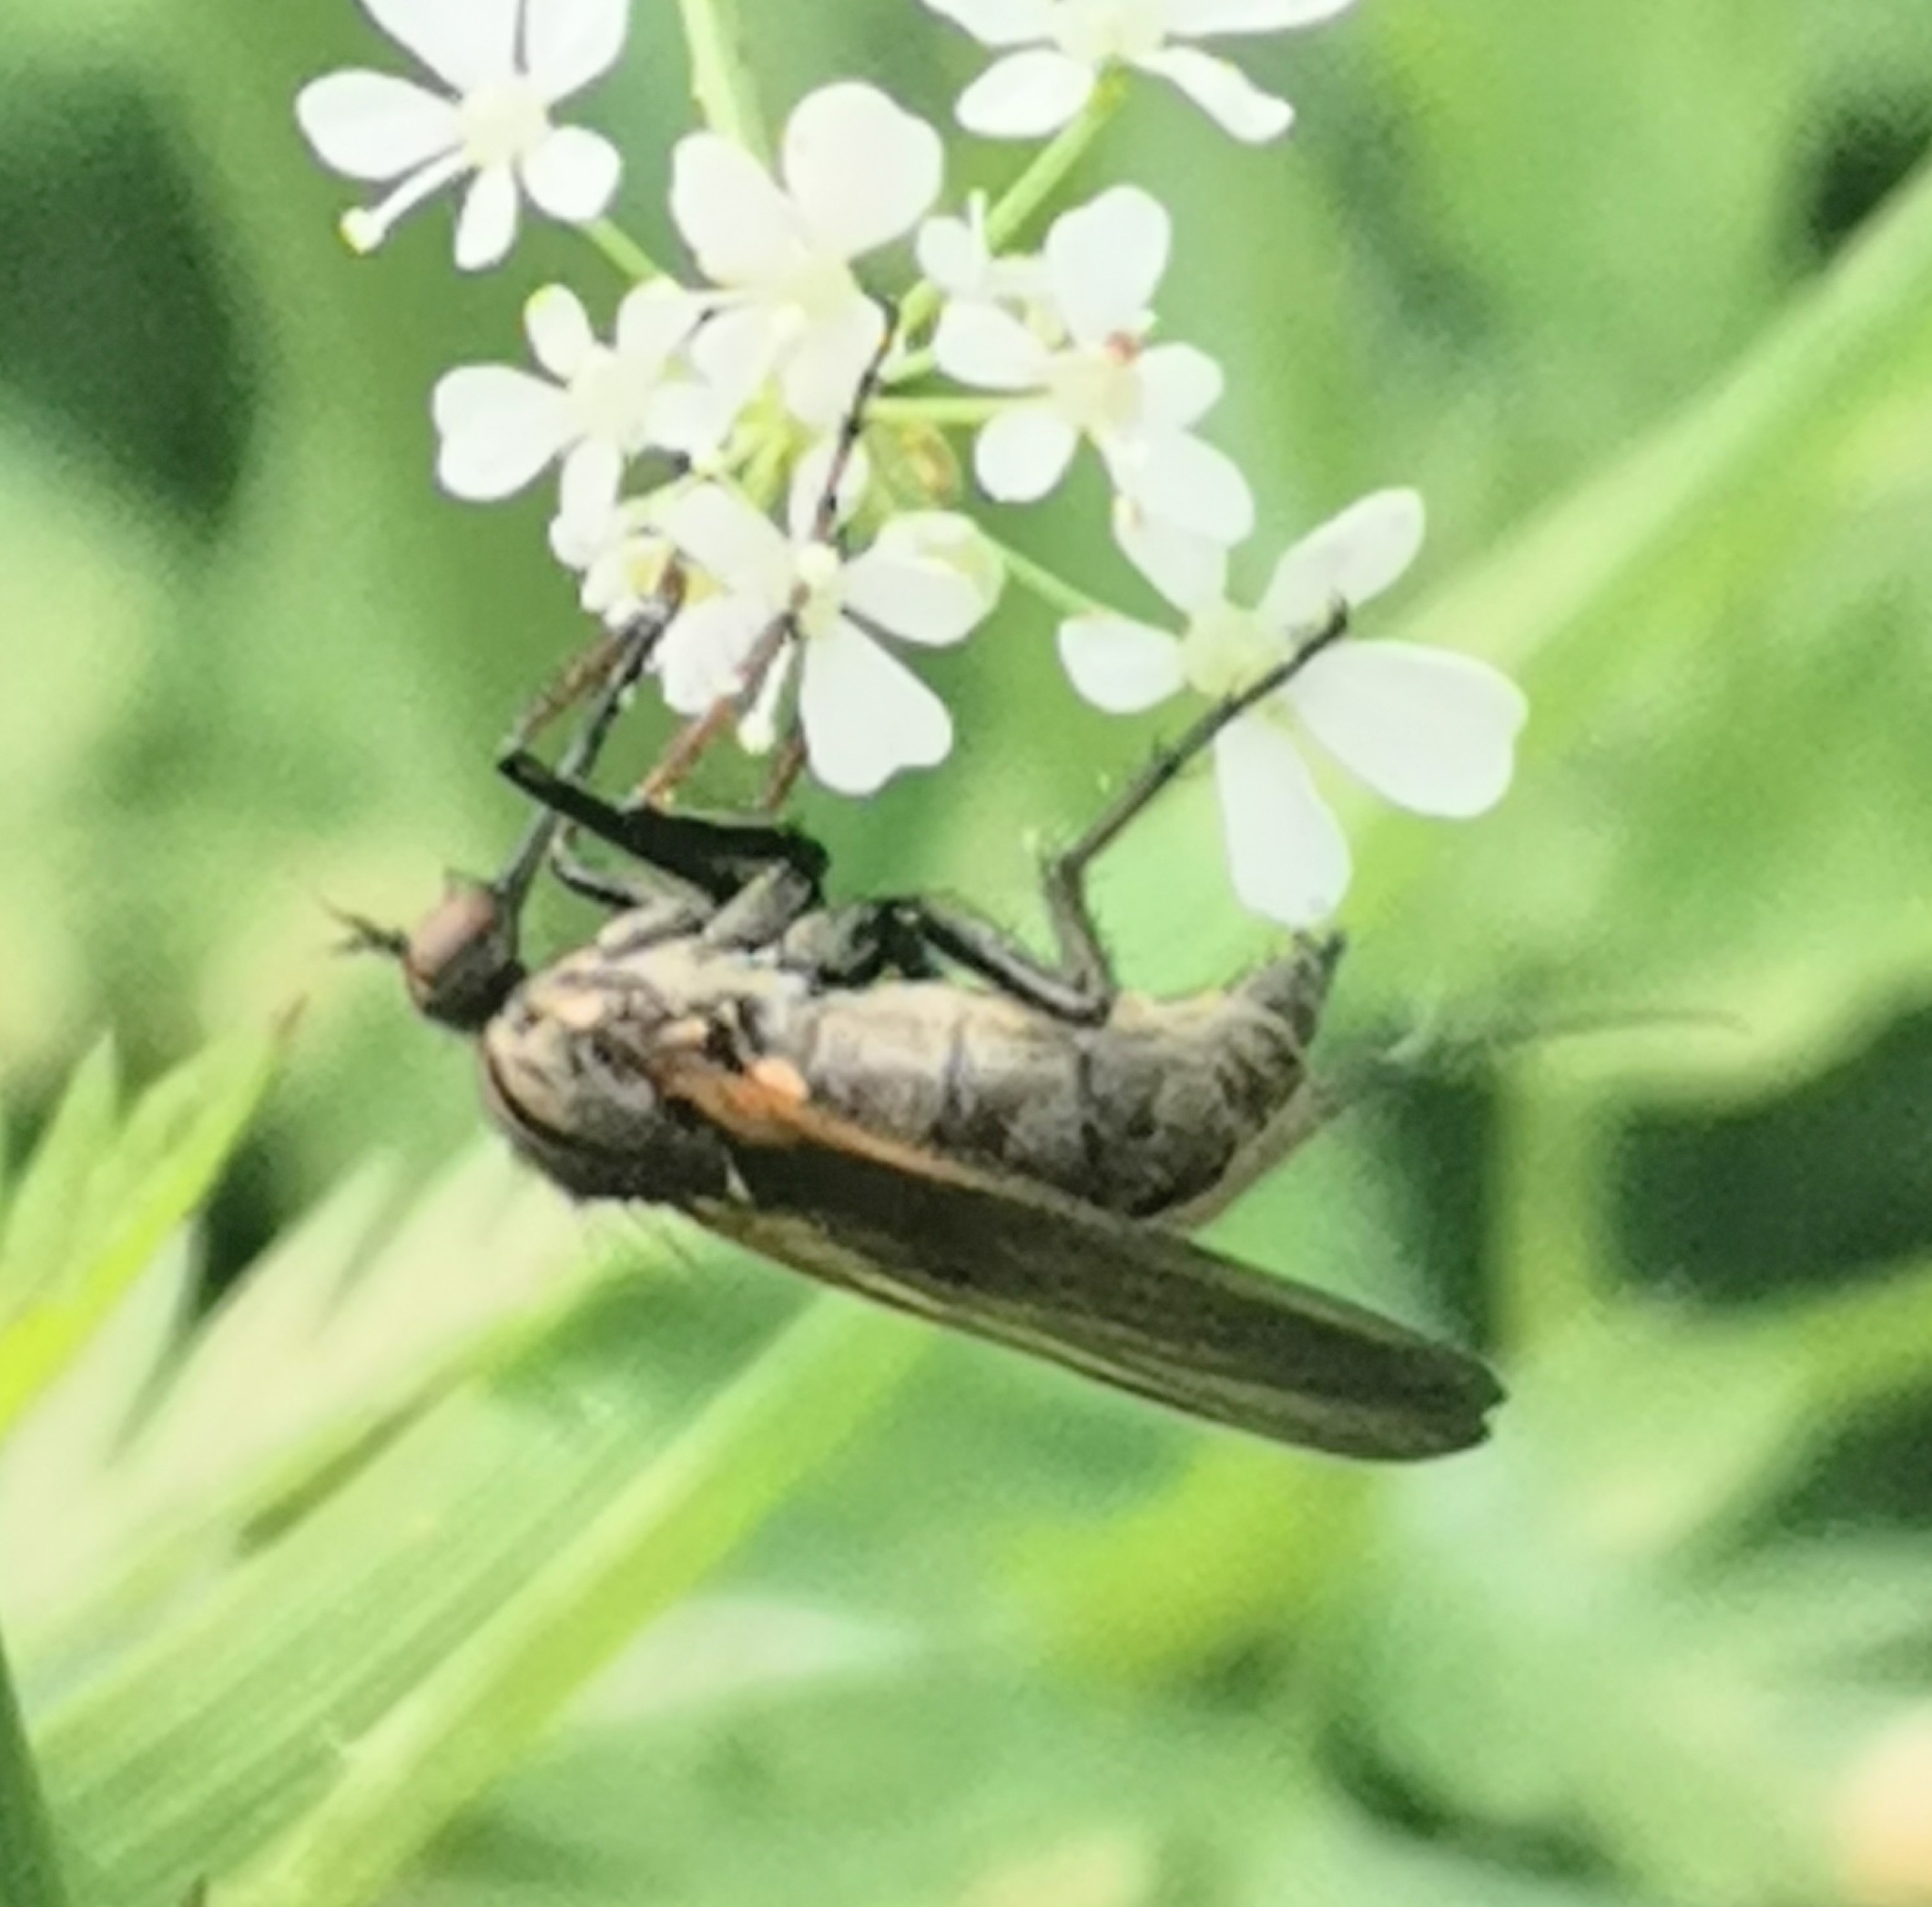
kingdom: Animalia
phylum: Arthropoda
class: Insecta
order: Diptera
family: Empididae
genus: Empis
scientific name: Empis tessellata
